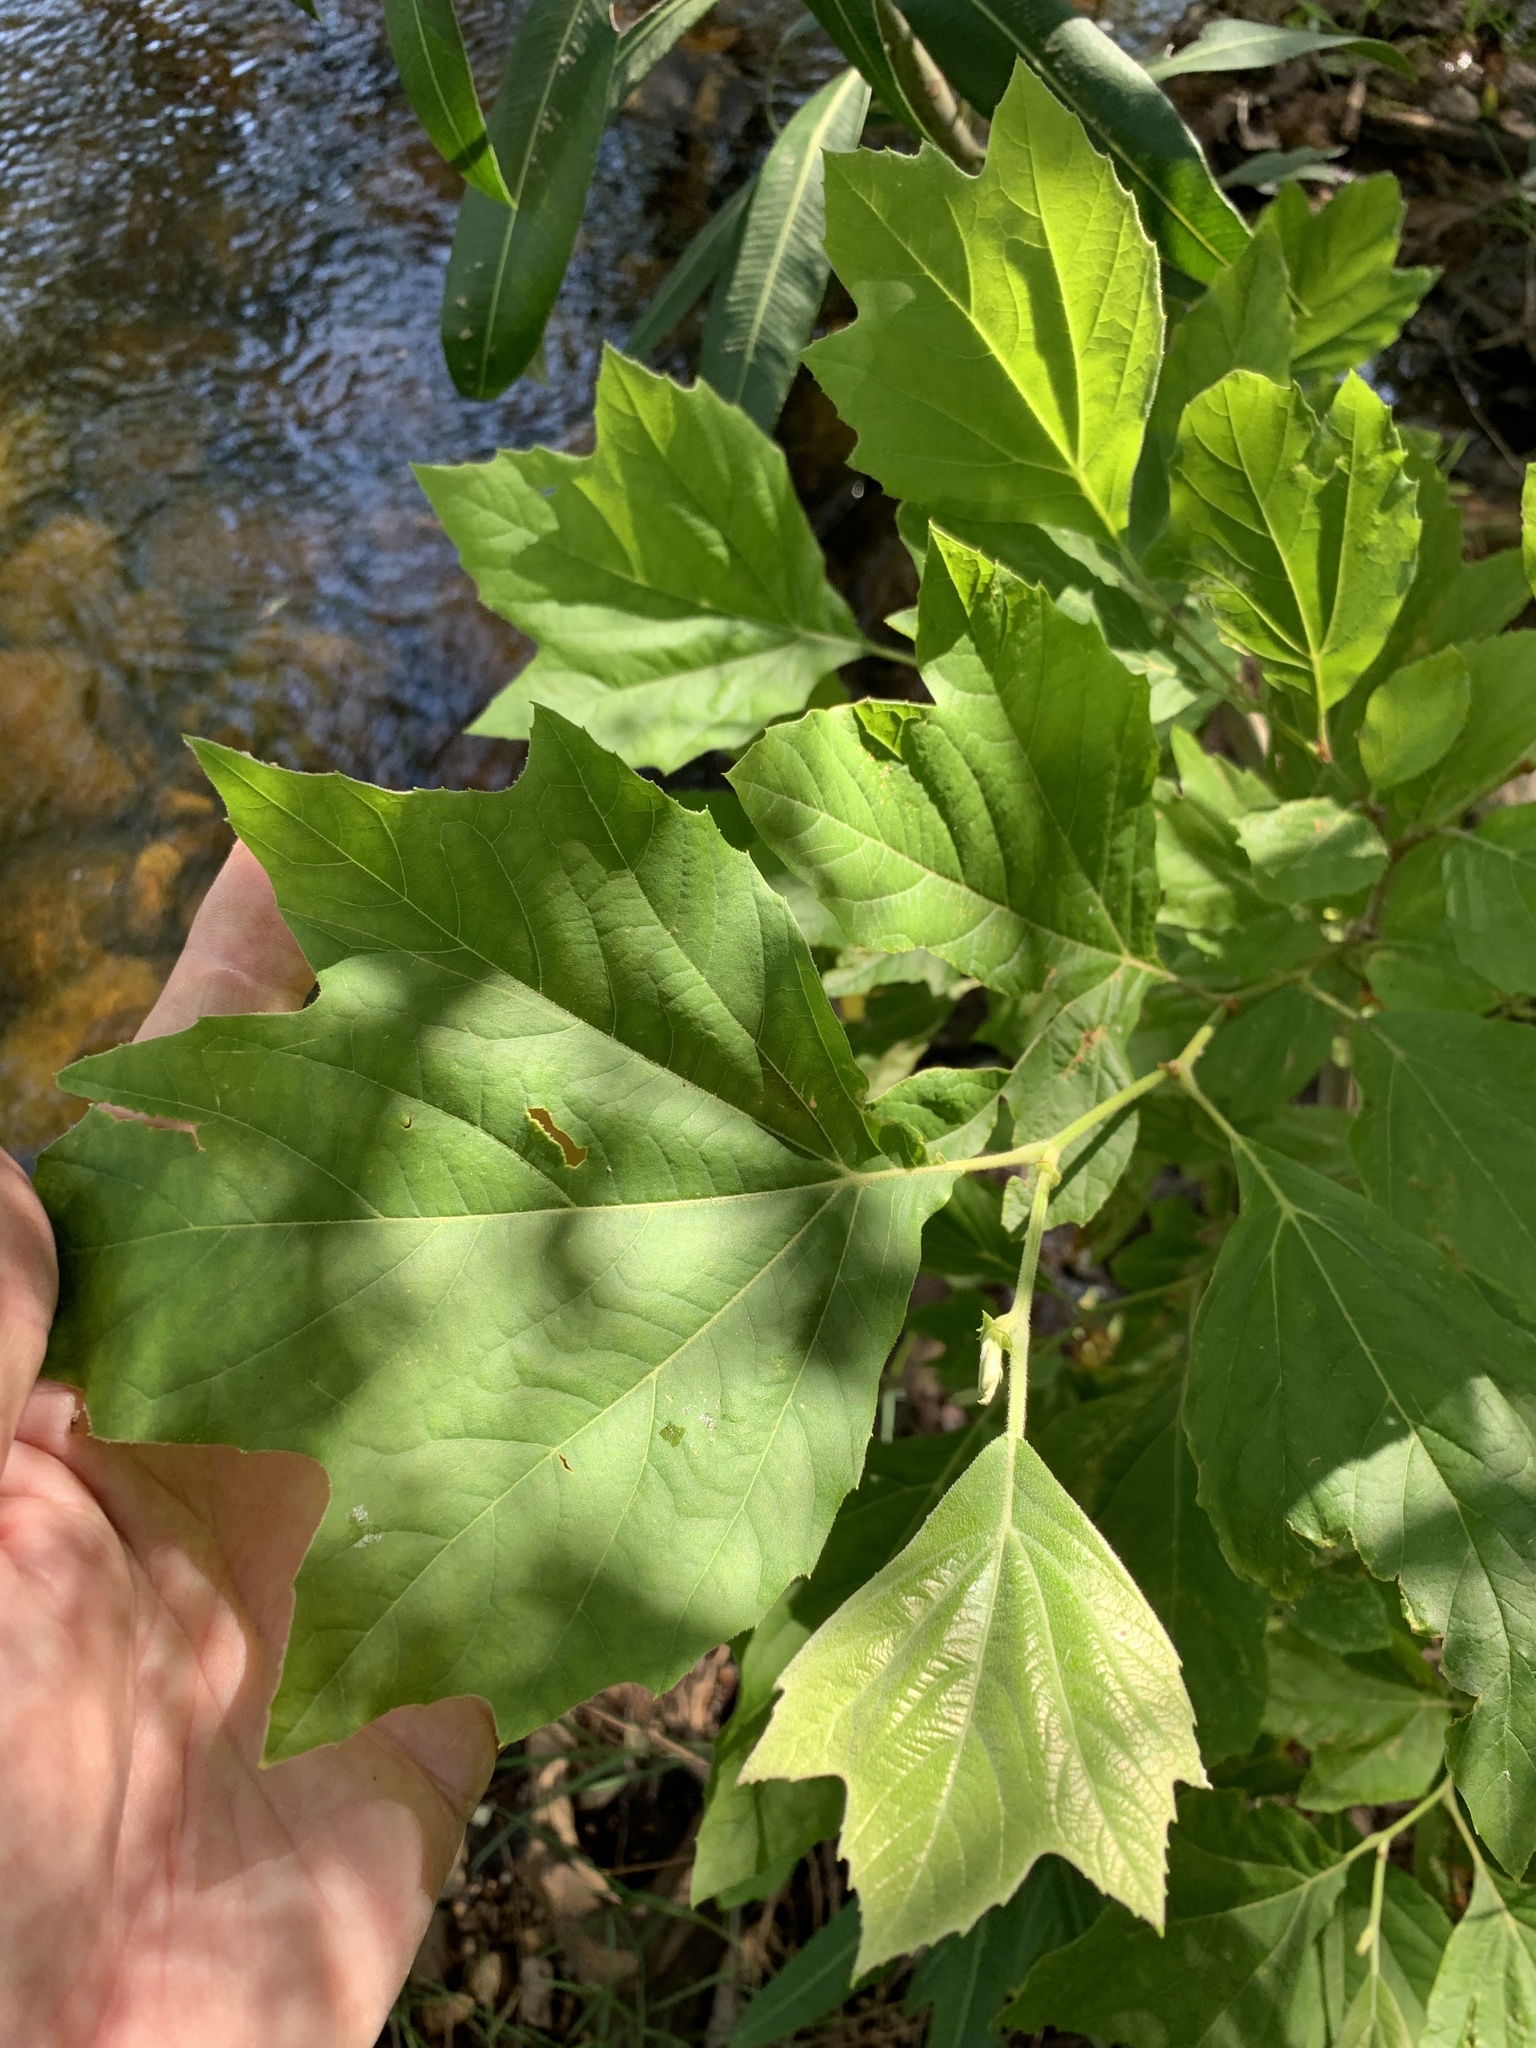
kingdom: Plantae
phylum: Tracheophyta
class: Magnoliopsida
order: Proteales
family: Platanaceae
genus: Platanus
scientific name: Platanus hispanica
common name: London plane
